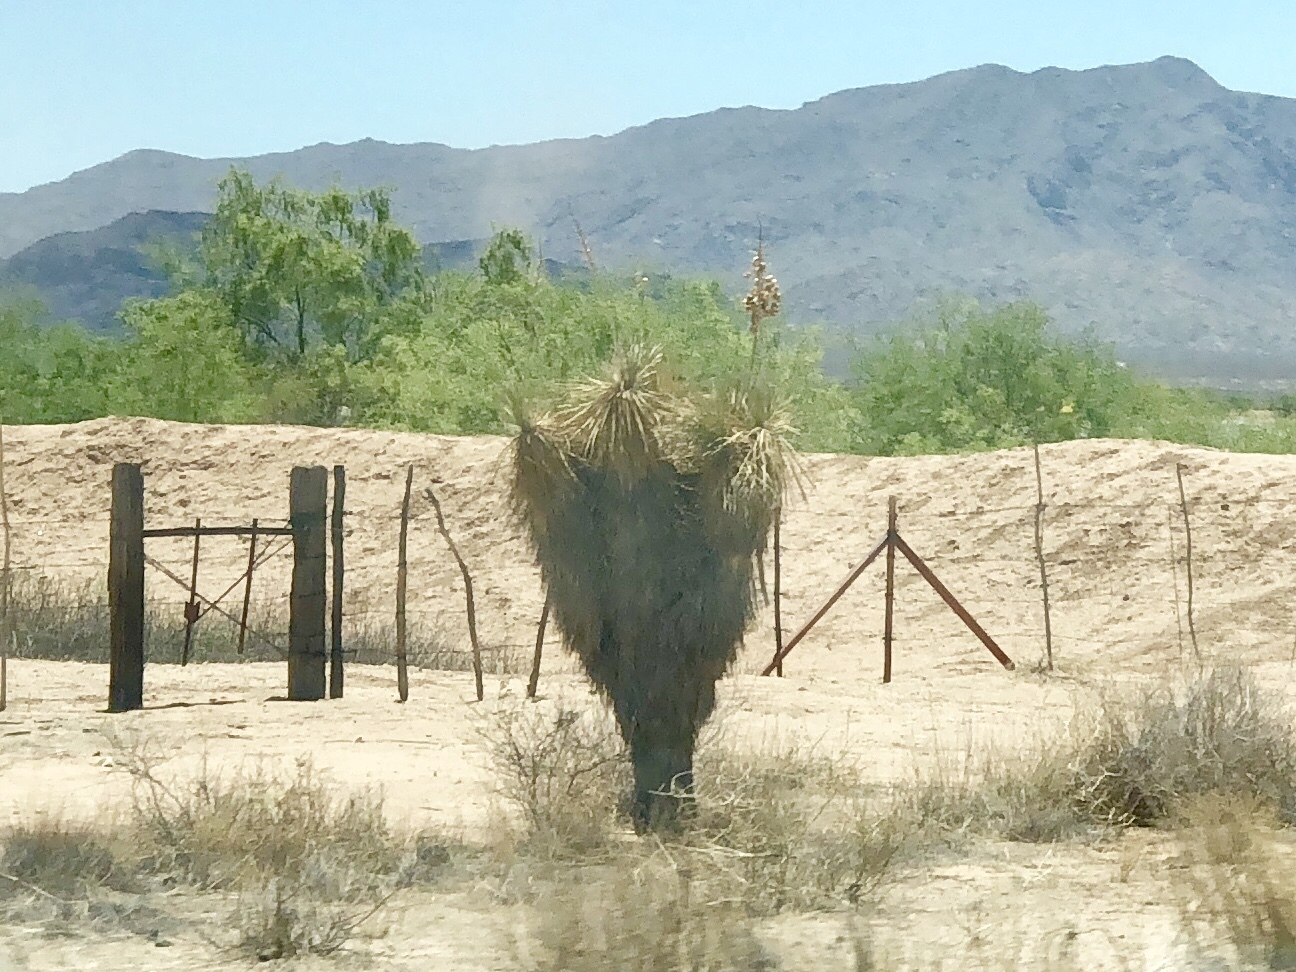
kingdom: Plantae
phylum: Tracheophyta
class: Liliopsida
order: Asparagales
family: Asparagaceae
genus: Yucca
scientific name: Yucca elata
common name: Palmella
